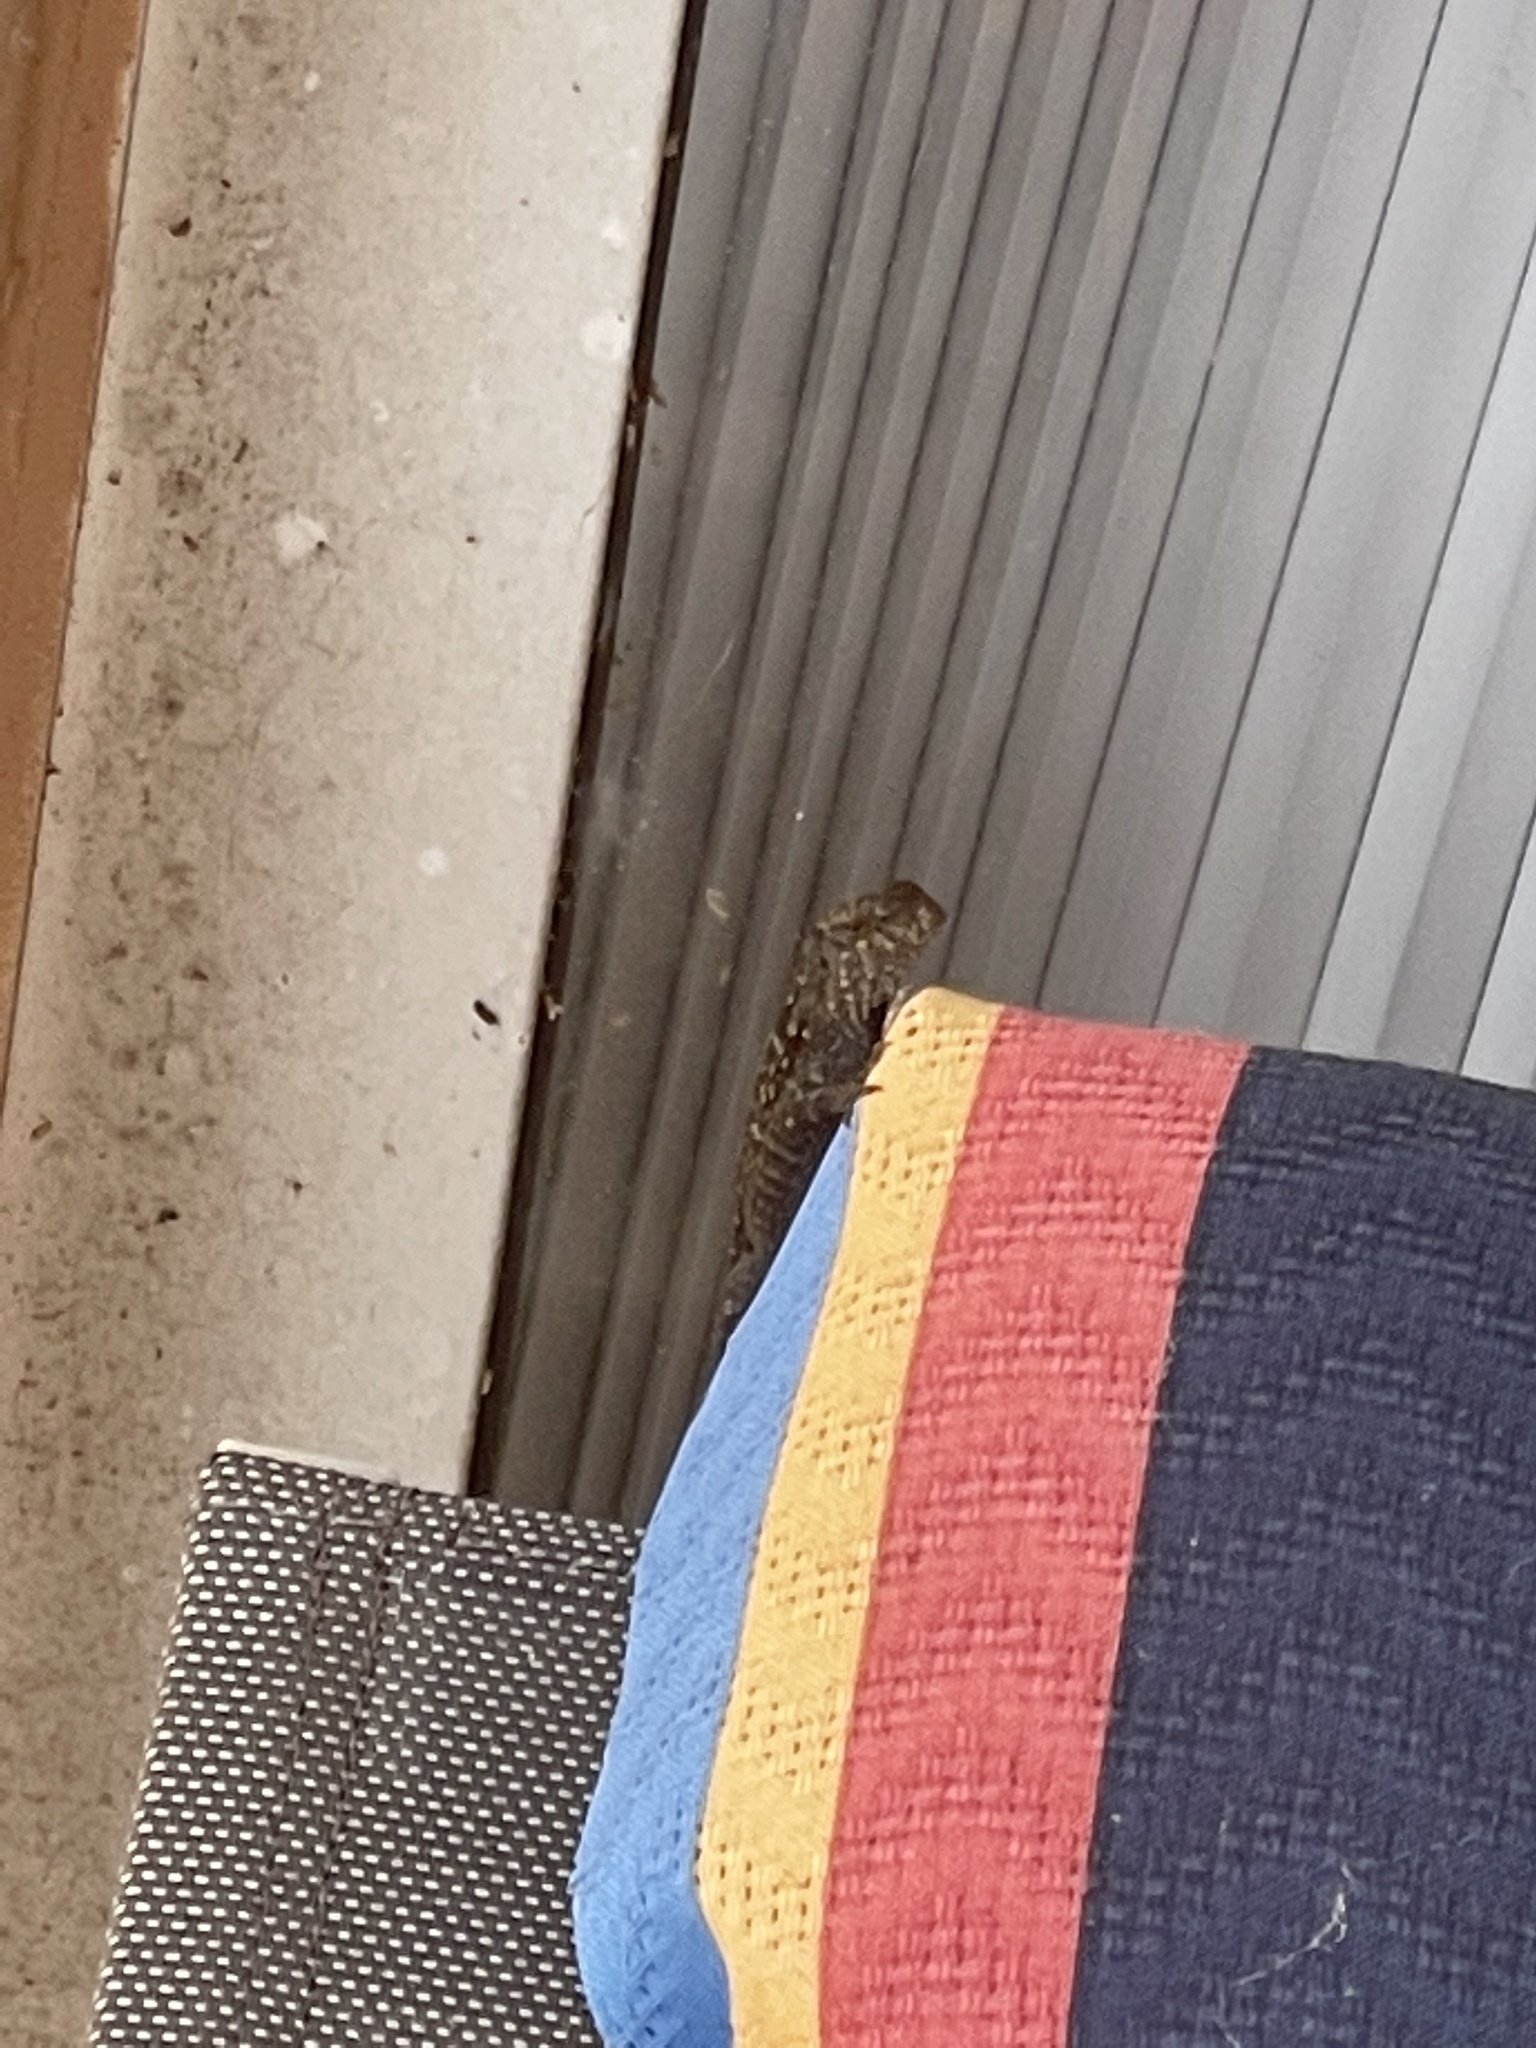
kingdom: Animalia
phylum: Chordata
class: Squamata
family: Dactyloidae
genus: Anolis
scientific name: Anolis sagrei
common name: Brown anole
